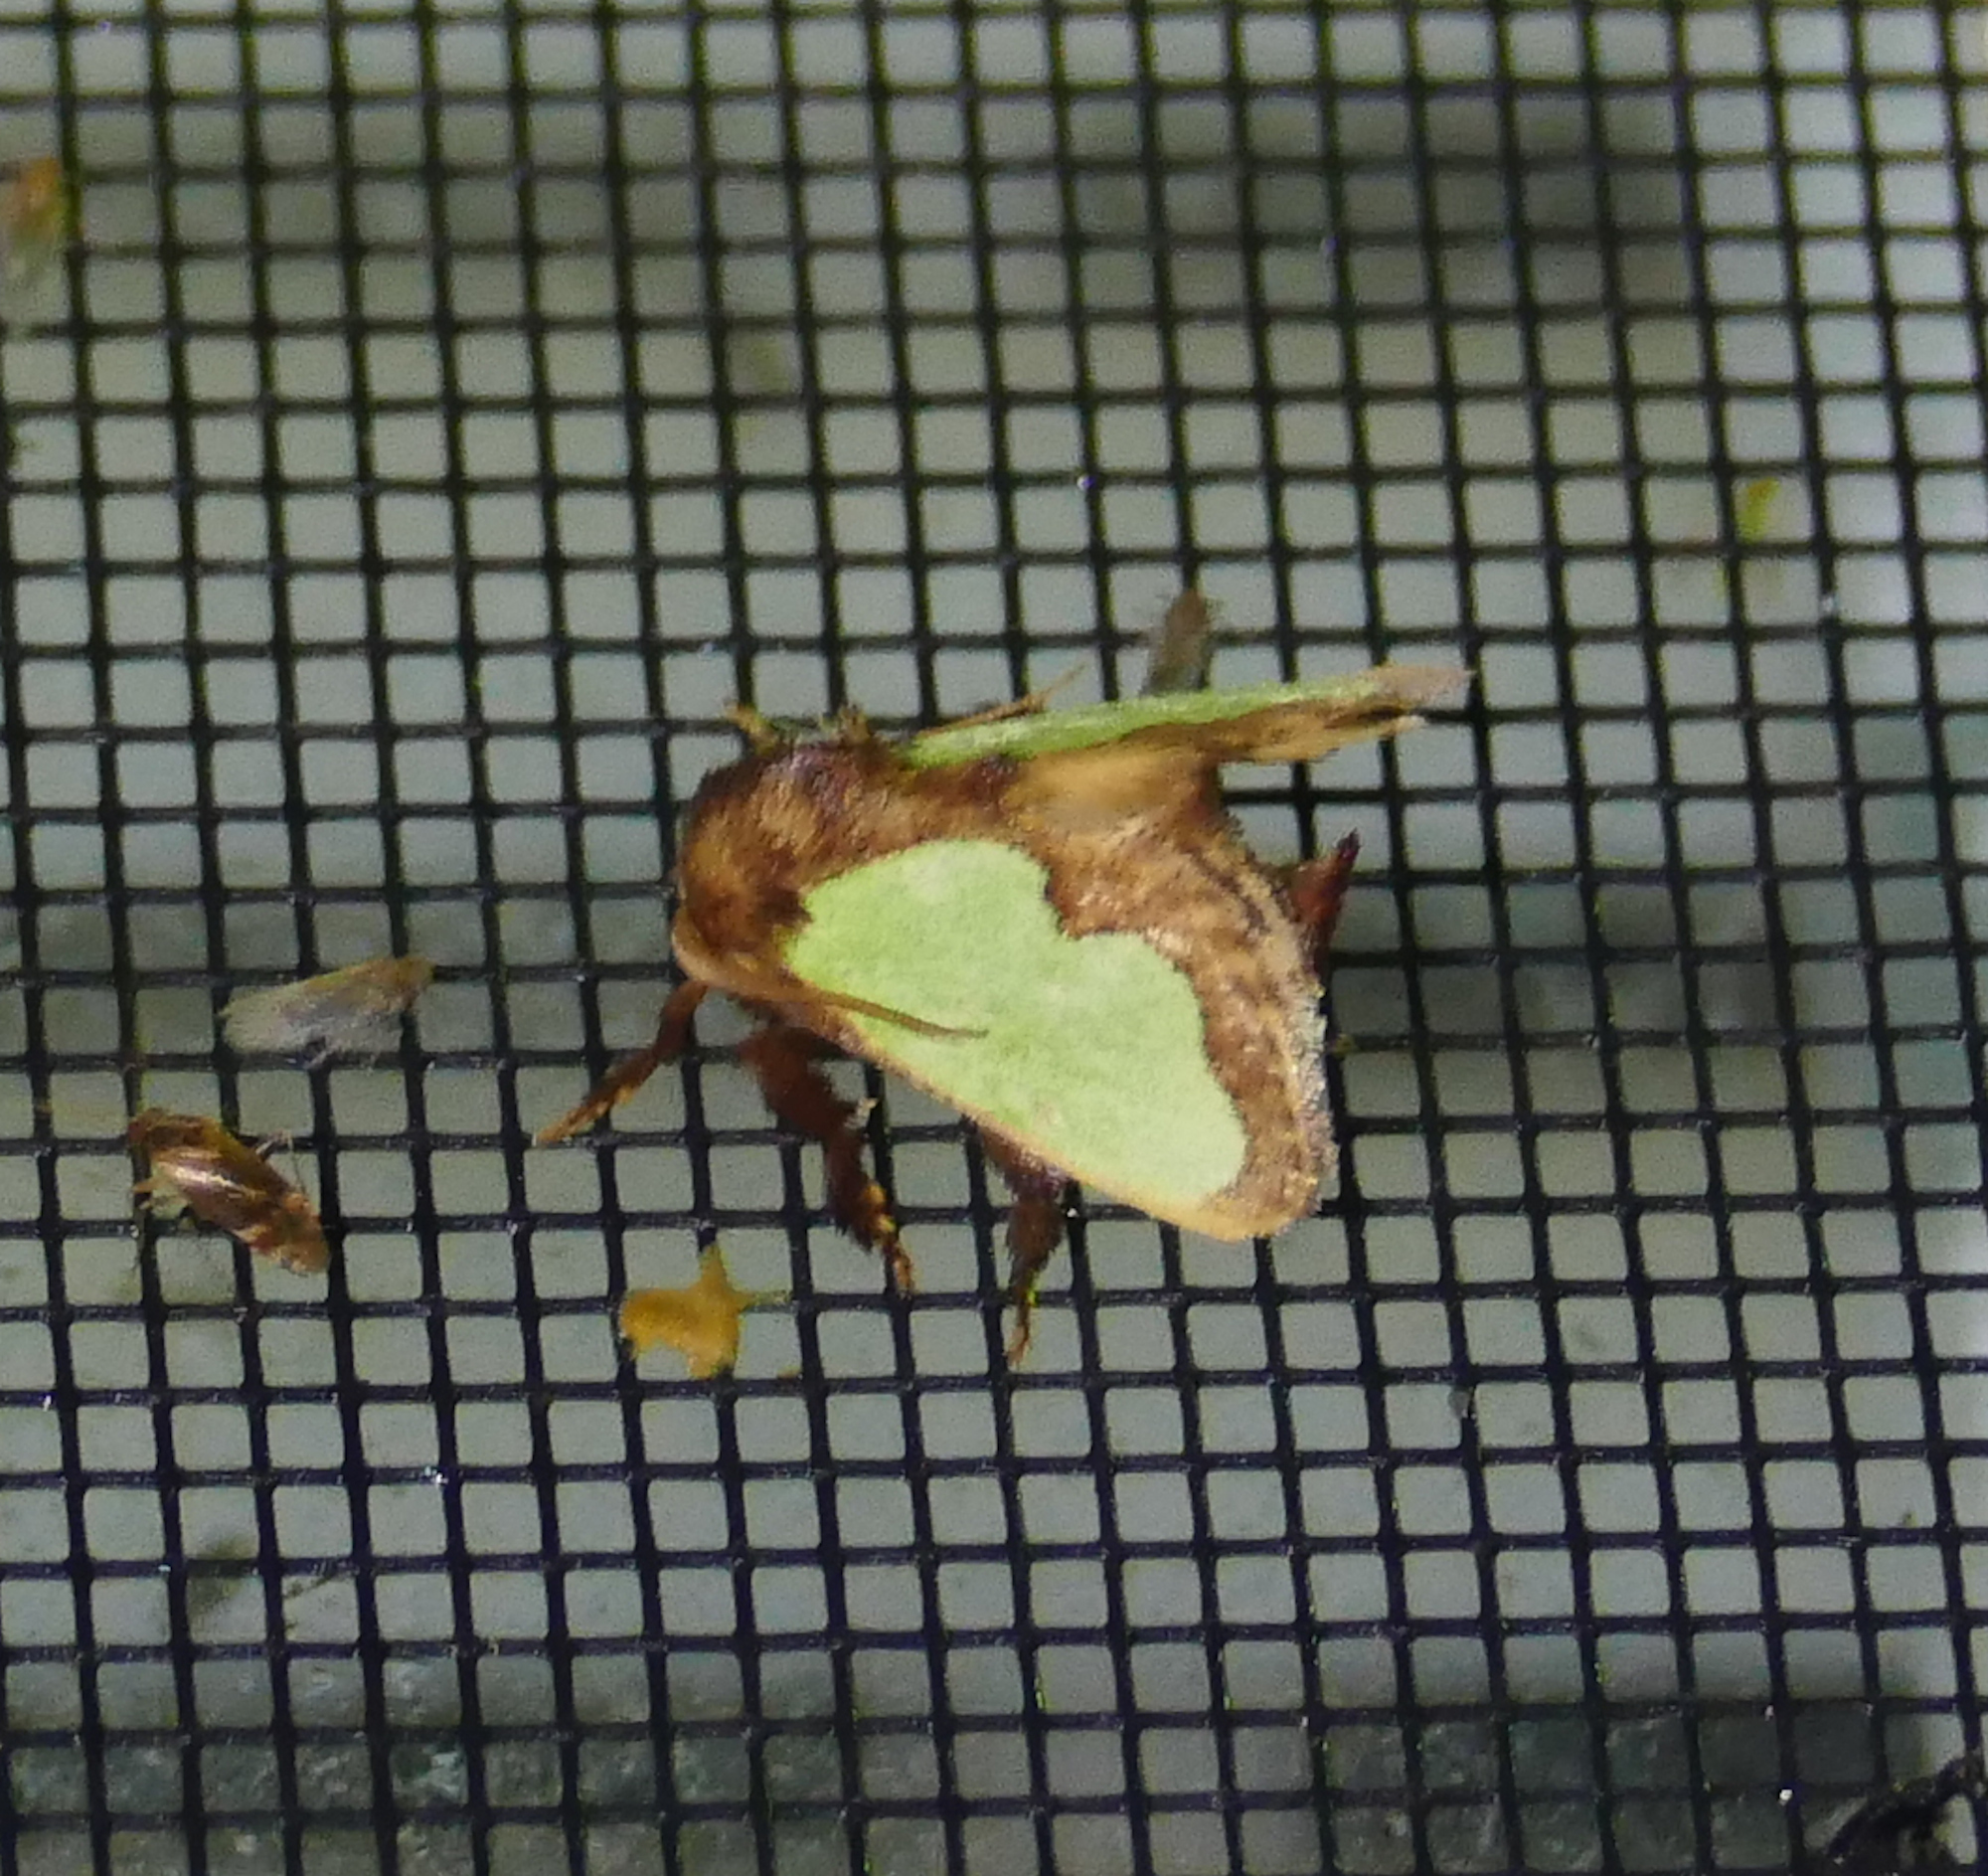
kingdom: Animalia
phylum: Arthropoda
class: Insecta
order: Lepidoptera
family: Limacodidae
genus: Euclea
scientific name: Euclea
